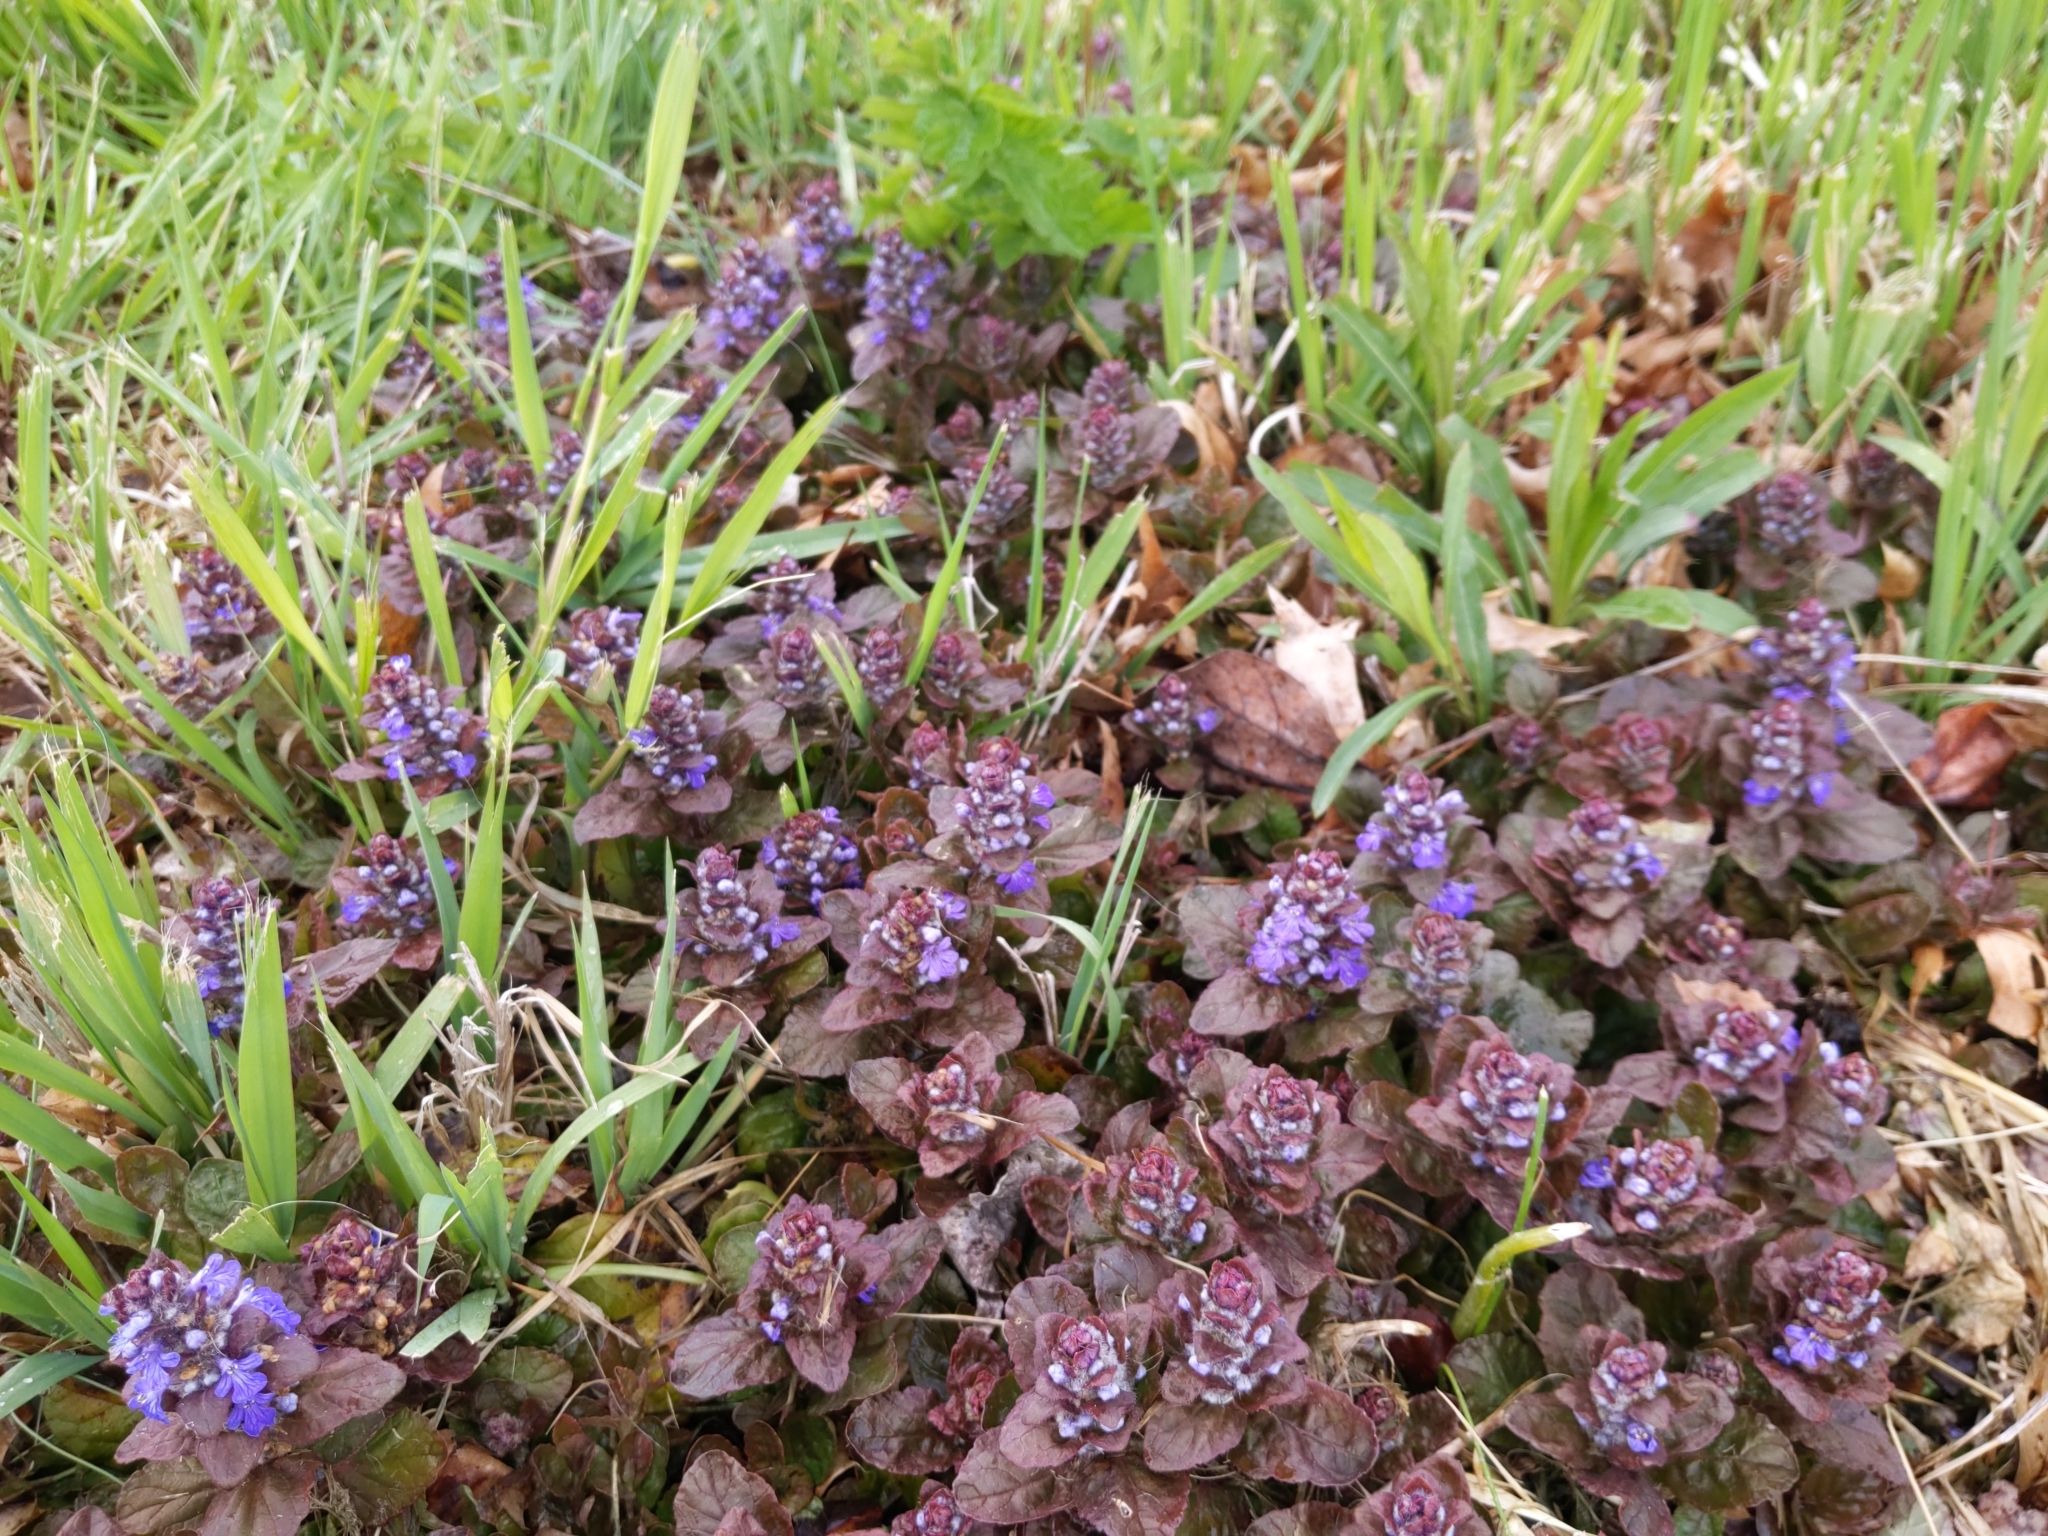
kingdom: Plantae
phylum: Tracheophyta
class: Magnoliopsida
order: Lamiales
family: Lamiaceae
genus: Ajuga
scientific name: Ajuga reptans
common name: Bugle
